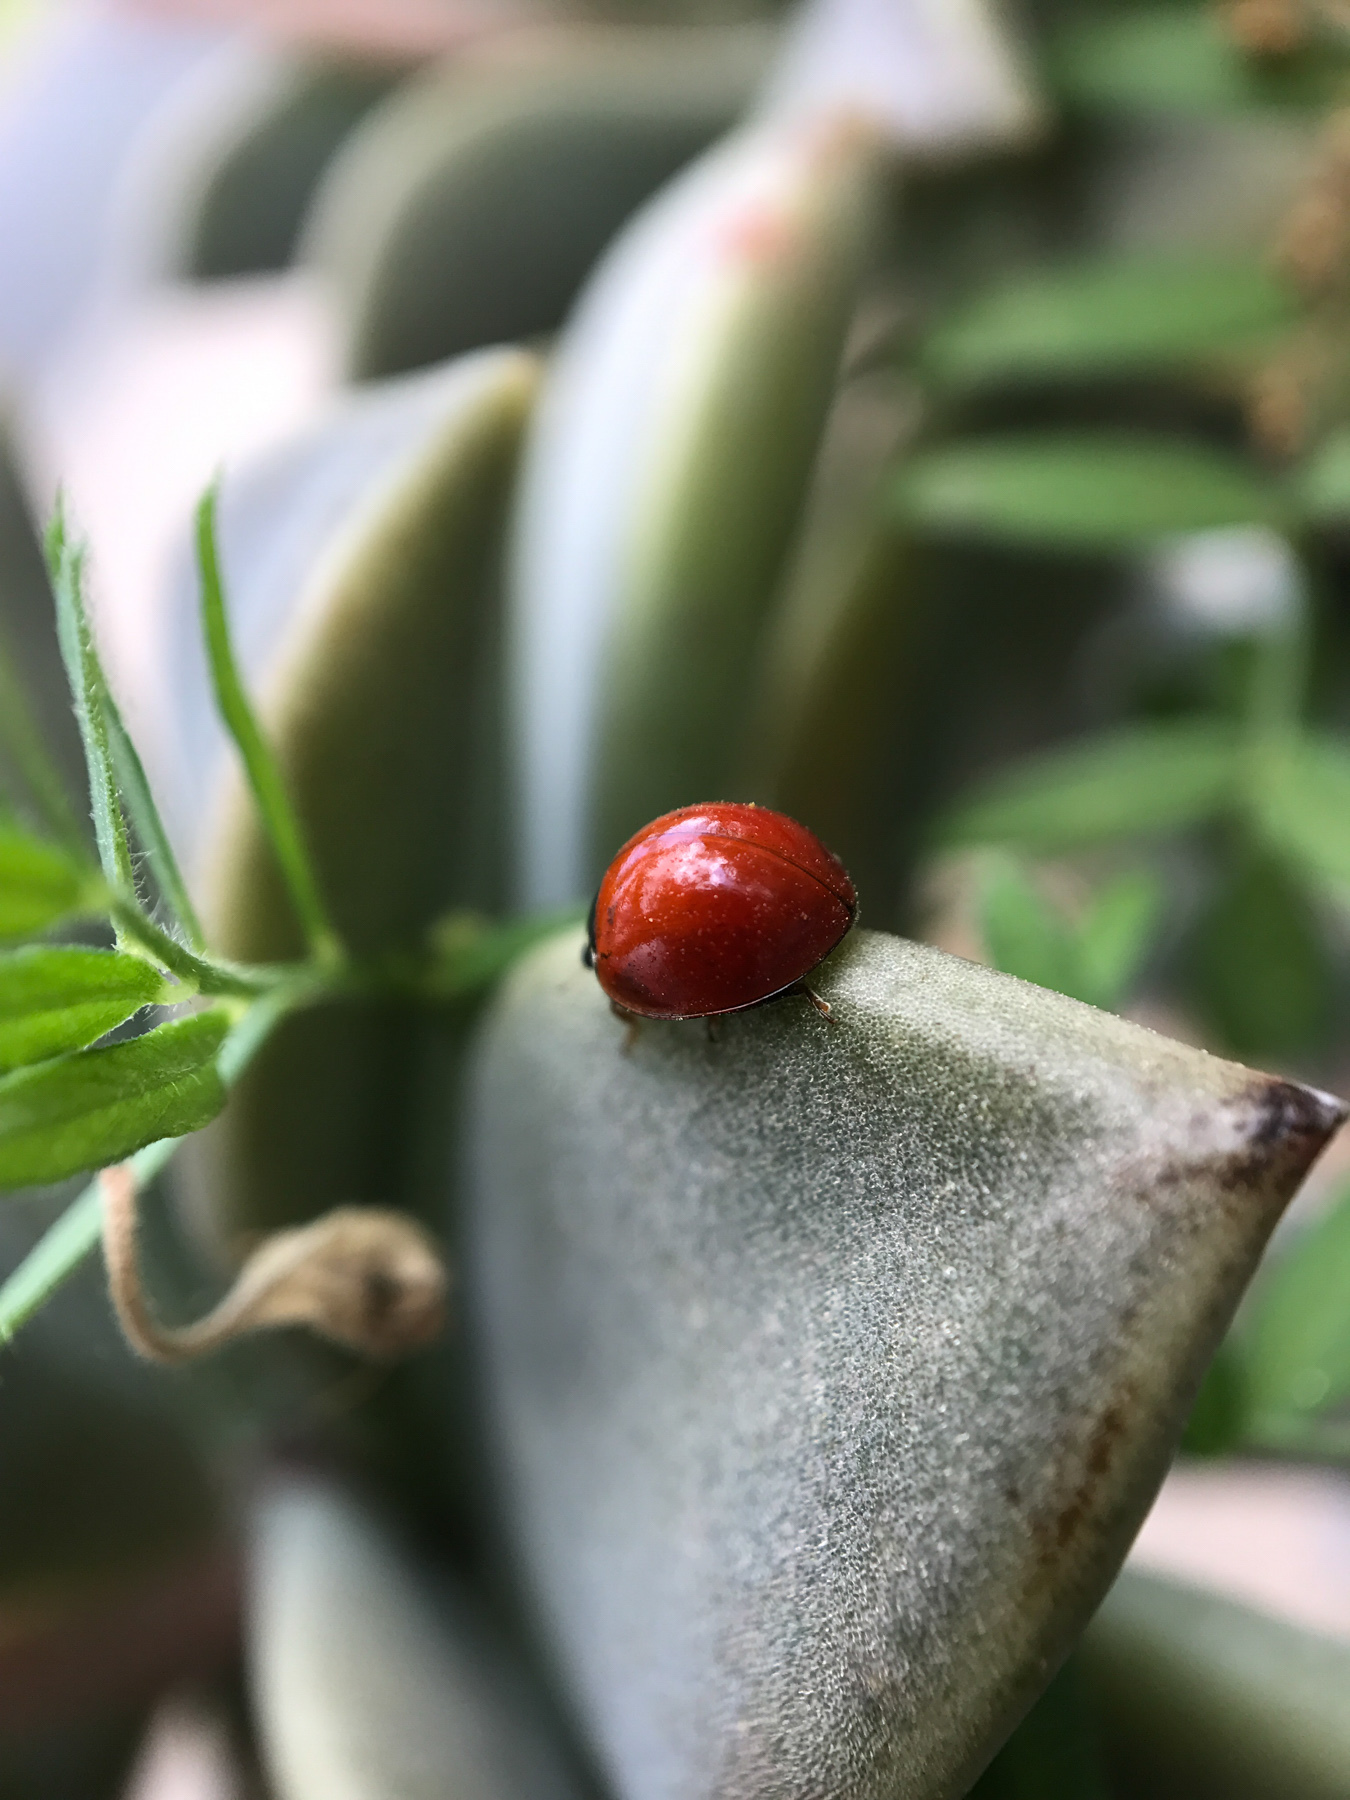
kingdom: Animalia
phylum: Arthropoda
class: Insecta
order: Coleoptera
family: Coccinellidae
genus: Cycloneda
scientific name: Cycloneda sanguinea
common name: Ladybird beetle
